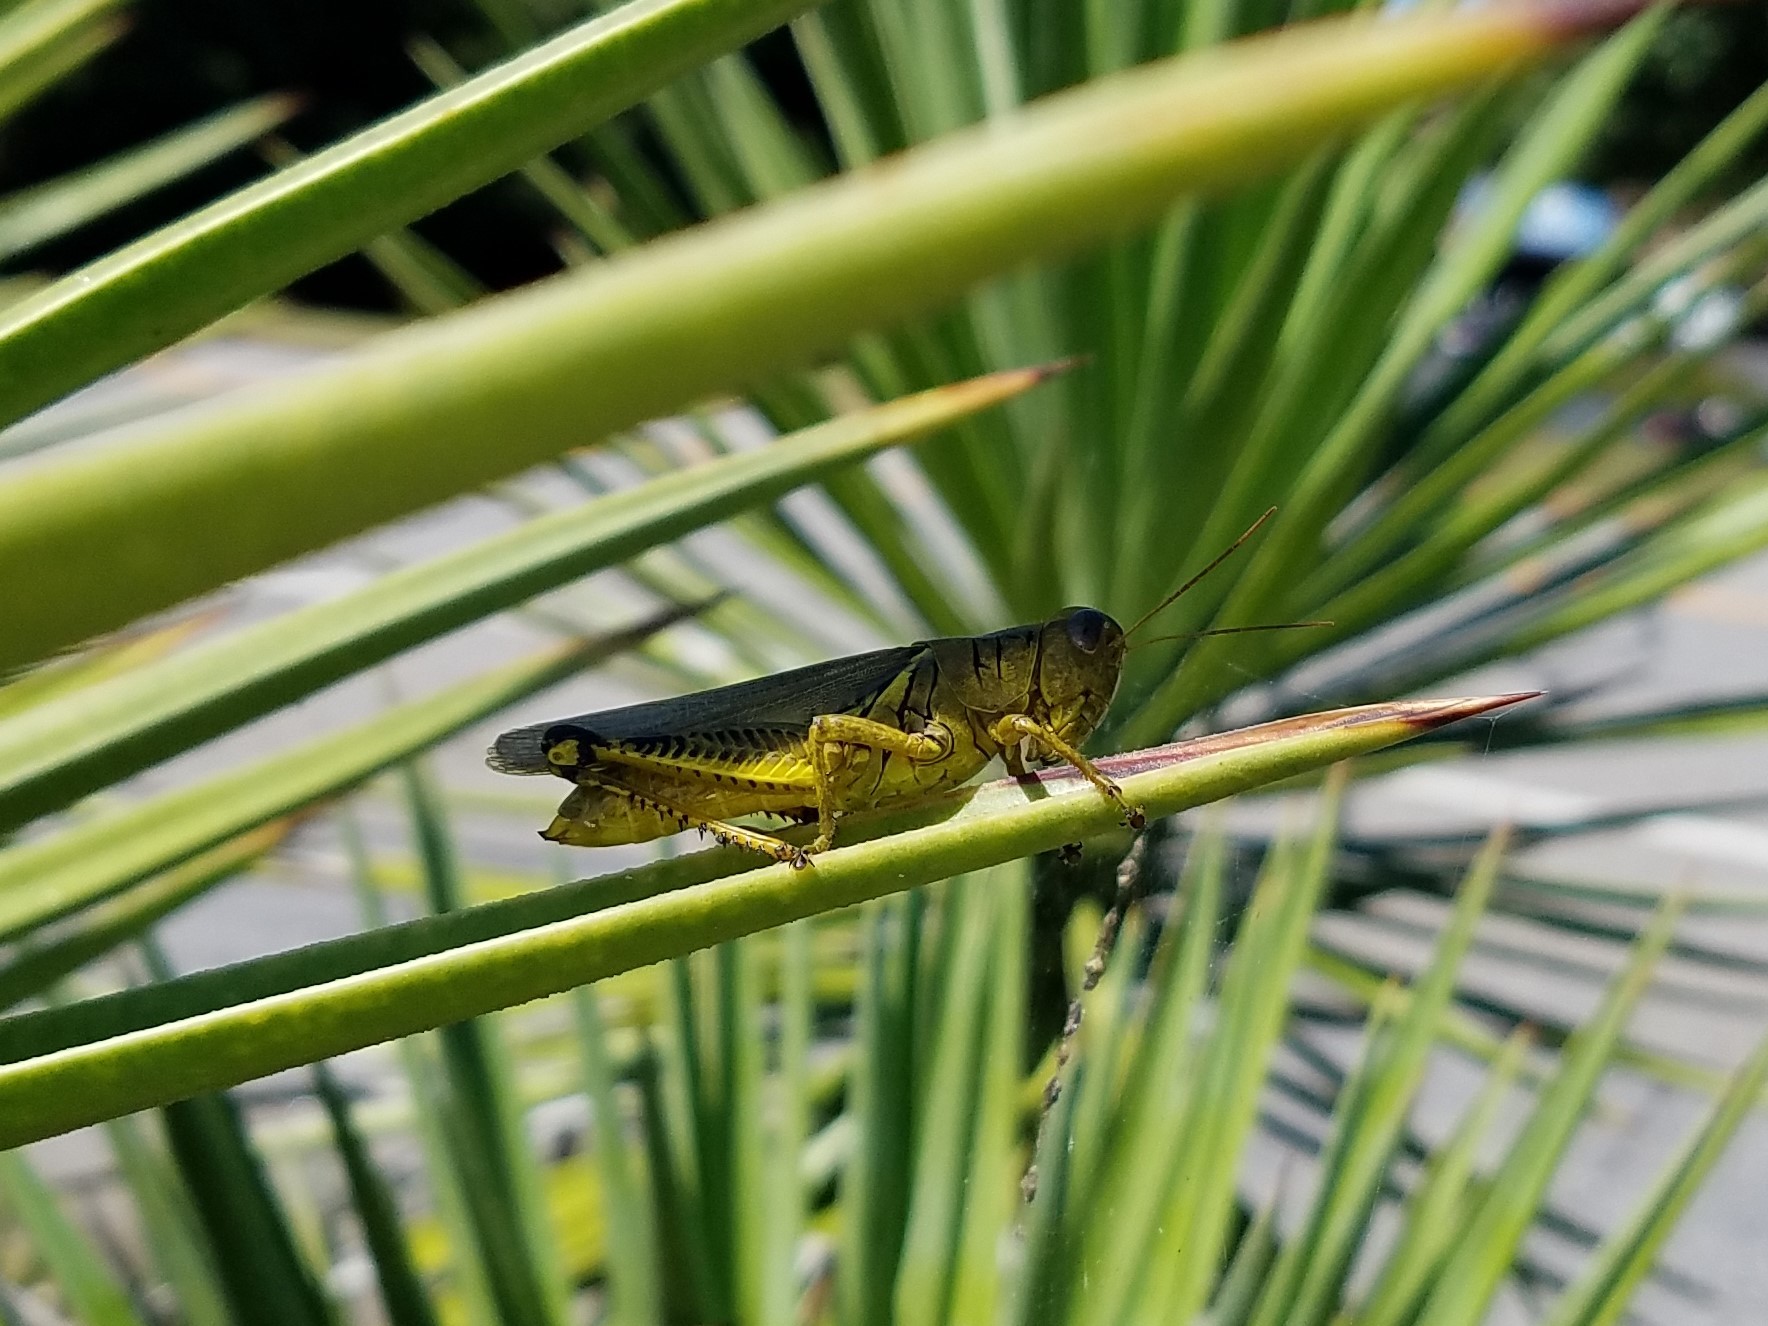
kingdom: Animalia
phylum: Arthropoda
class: Insecta
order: Orthoptera
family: Acrididae
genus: Melanoplus
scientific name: Melanoplus differentialis
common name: Differential grasshopper
